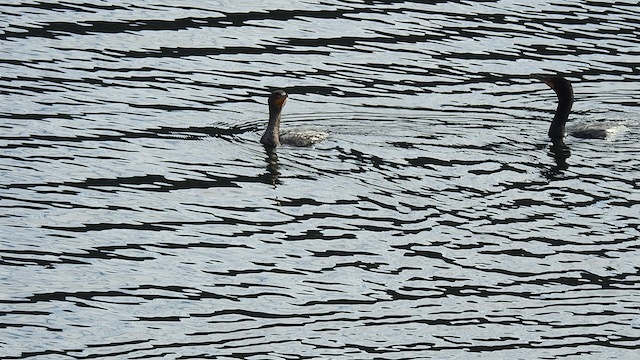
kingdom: Animalia
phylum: Chordata
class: Aves
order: Suliformes
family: Phalacrocoracidae
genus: Phalacrocorax
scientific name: Phalacrocorax auritus
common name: Double-crested cormorant
